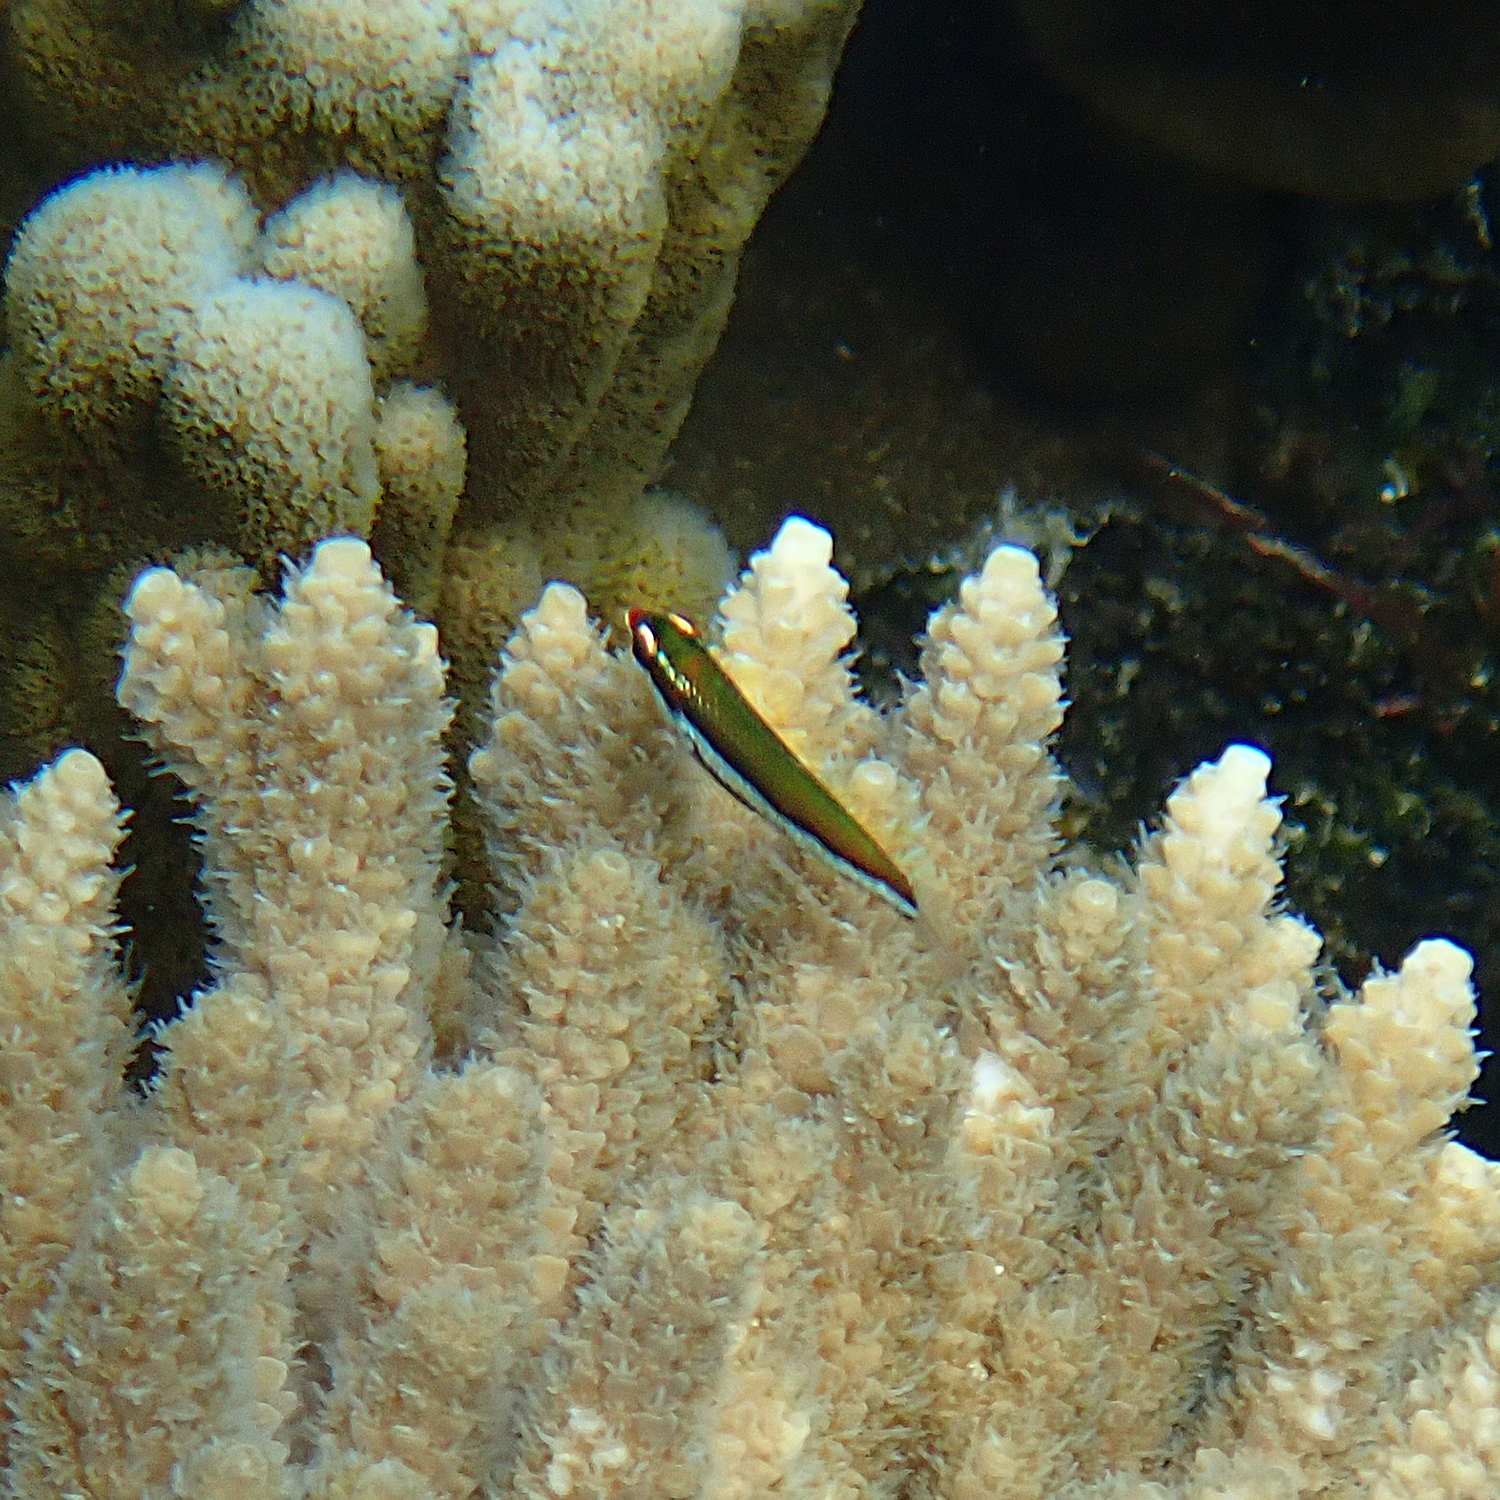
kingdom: Animalia
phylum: Chordata
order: Perciformes
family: Labridae
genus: Gomphosus
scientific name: Gomphosus varius
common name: Bird wrasse
